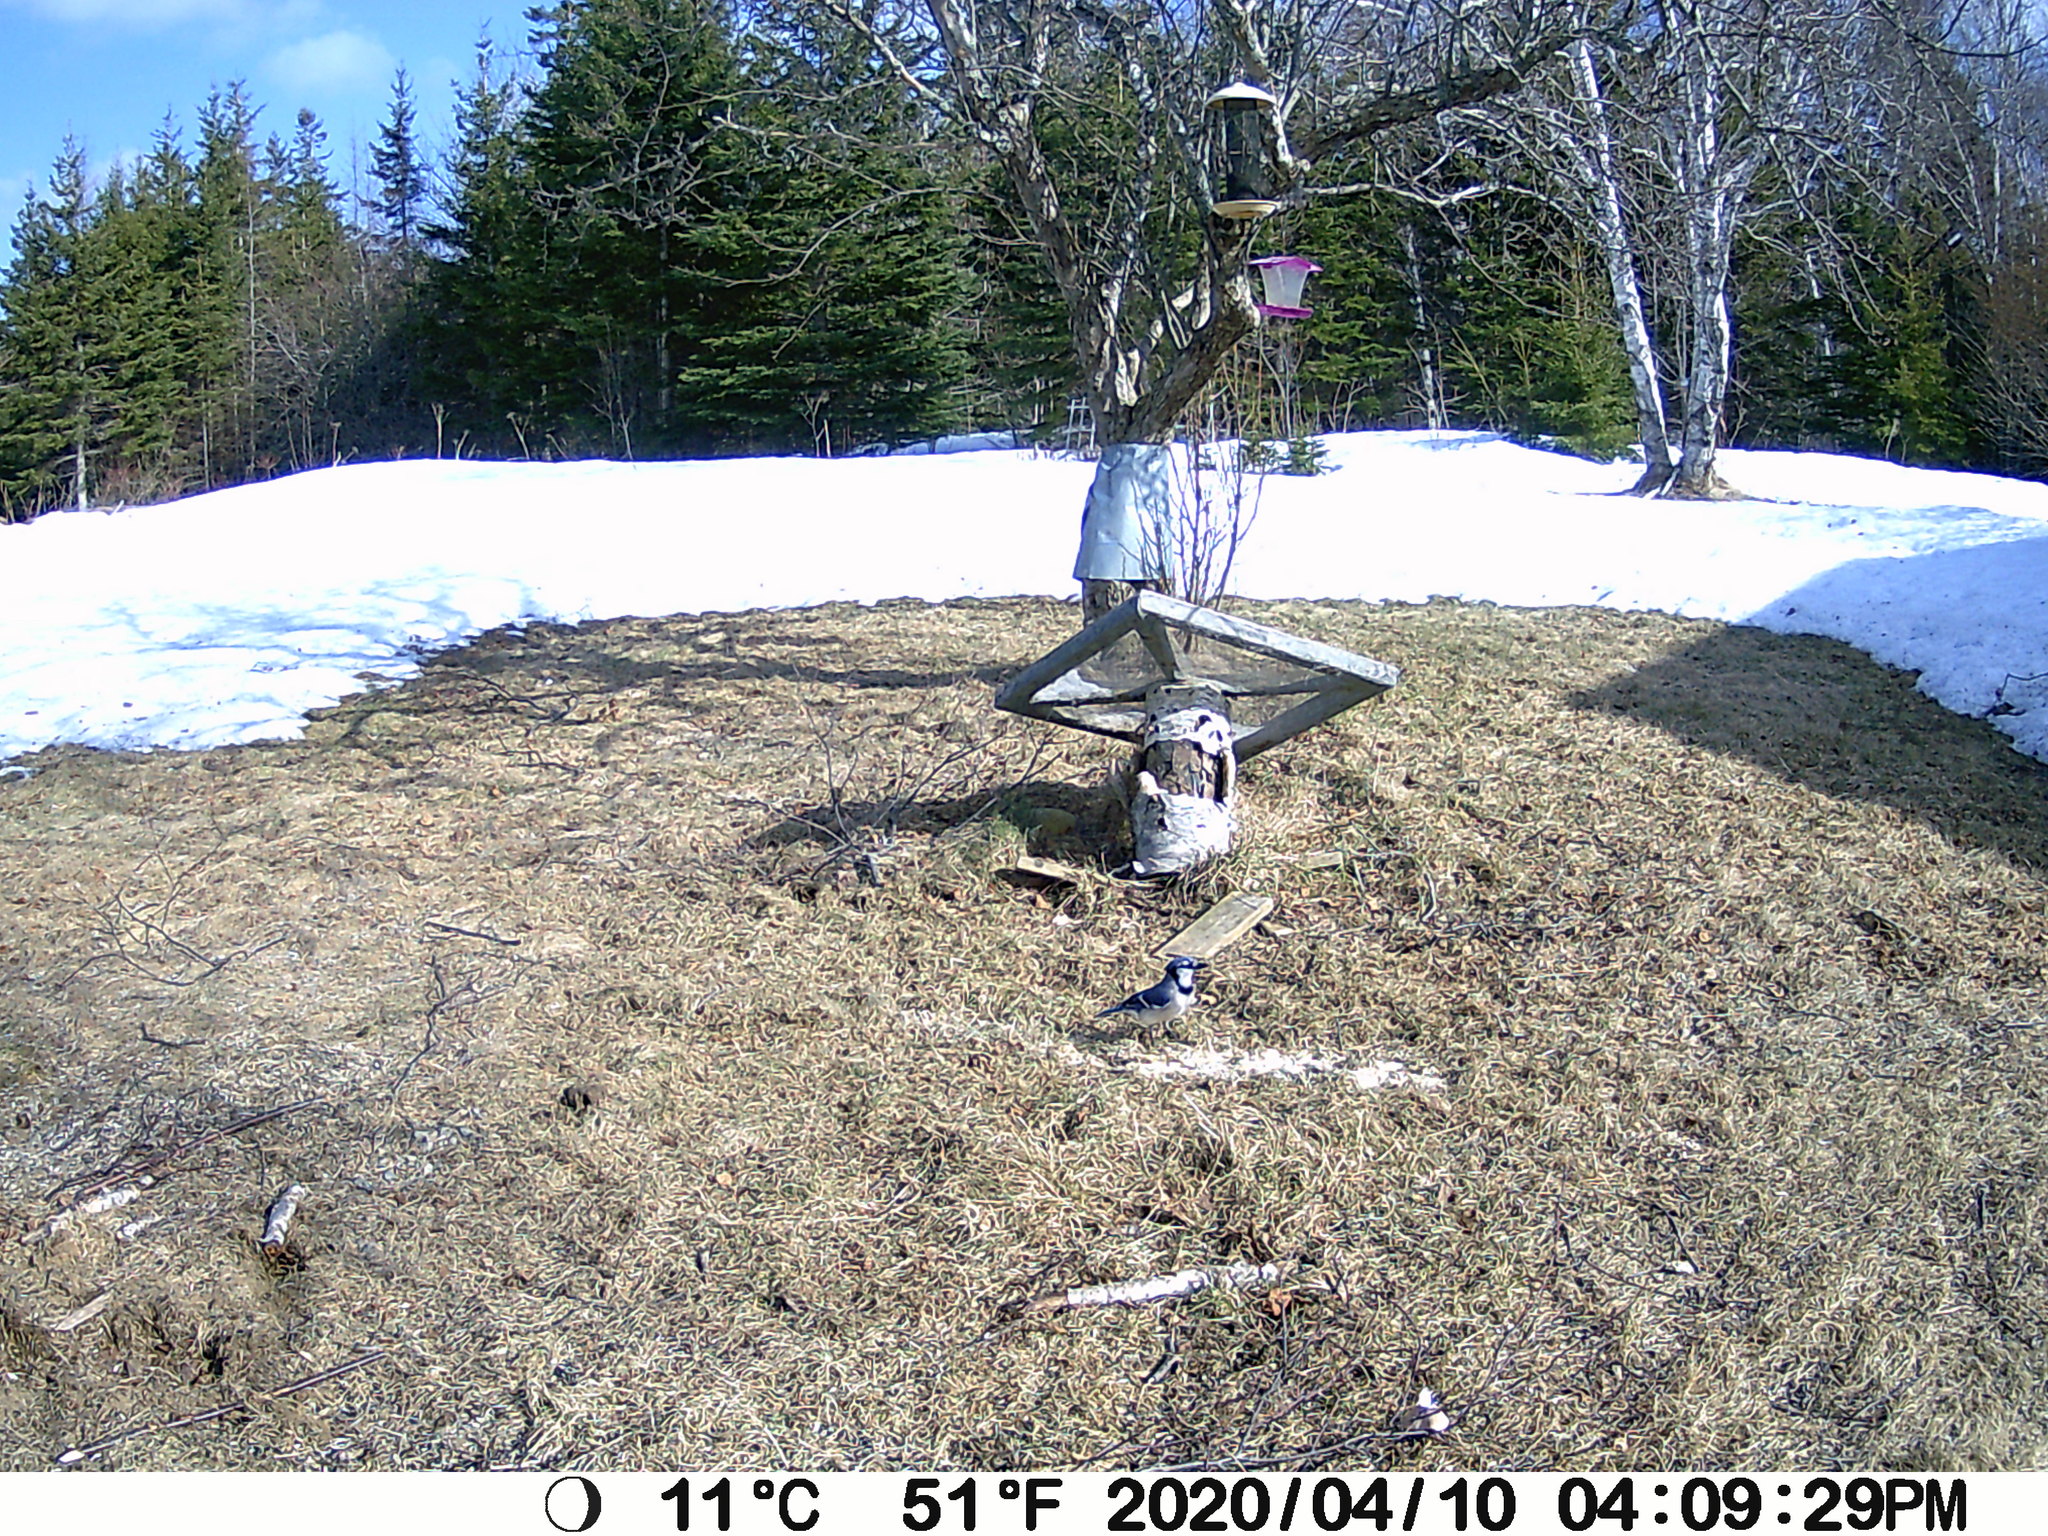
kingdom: Animalia
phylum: Chordata
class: Aves
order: Passeriformes
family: Corvidae
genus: Cyanocitta
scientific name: Cyanocitta cristata
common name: Blue jay
